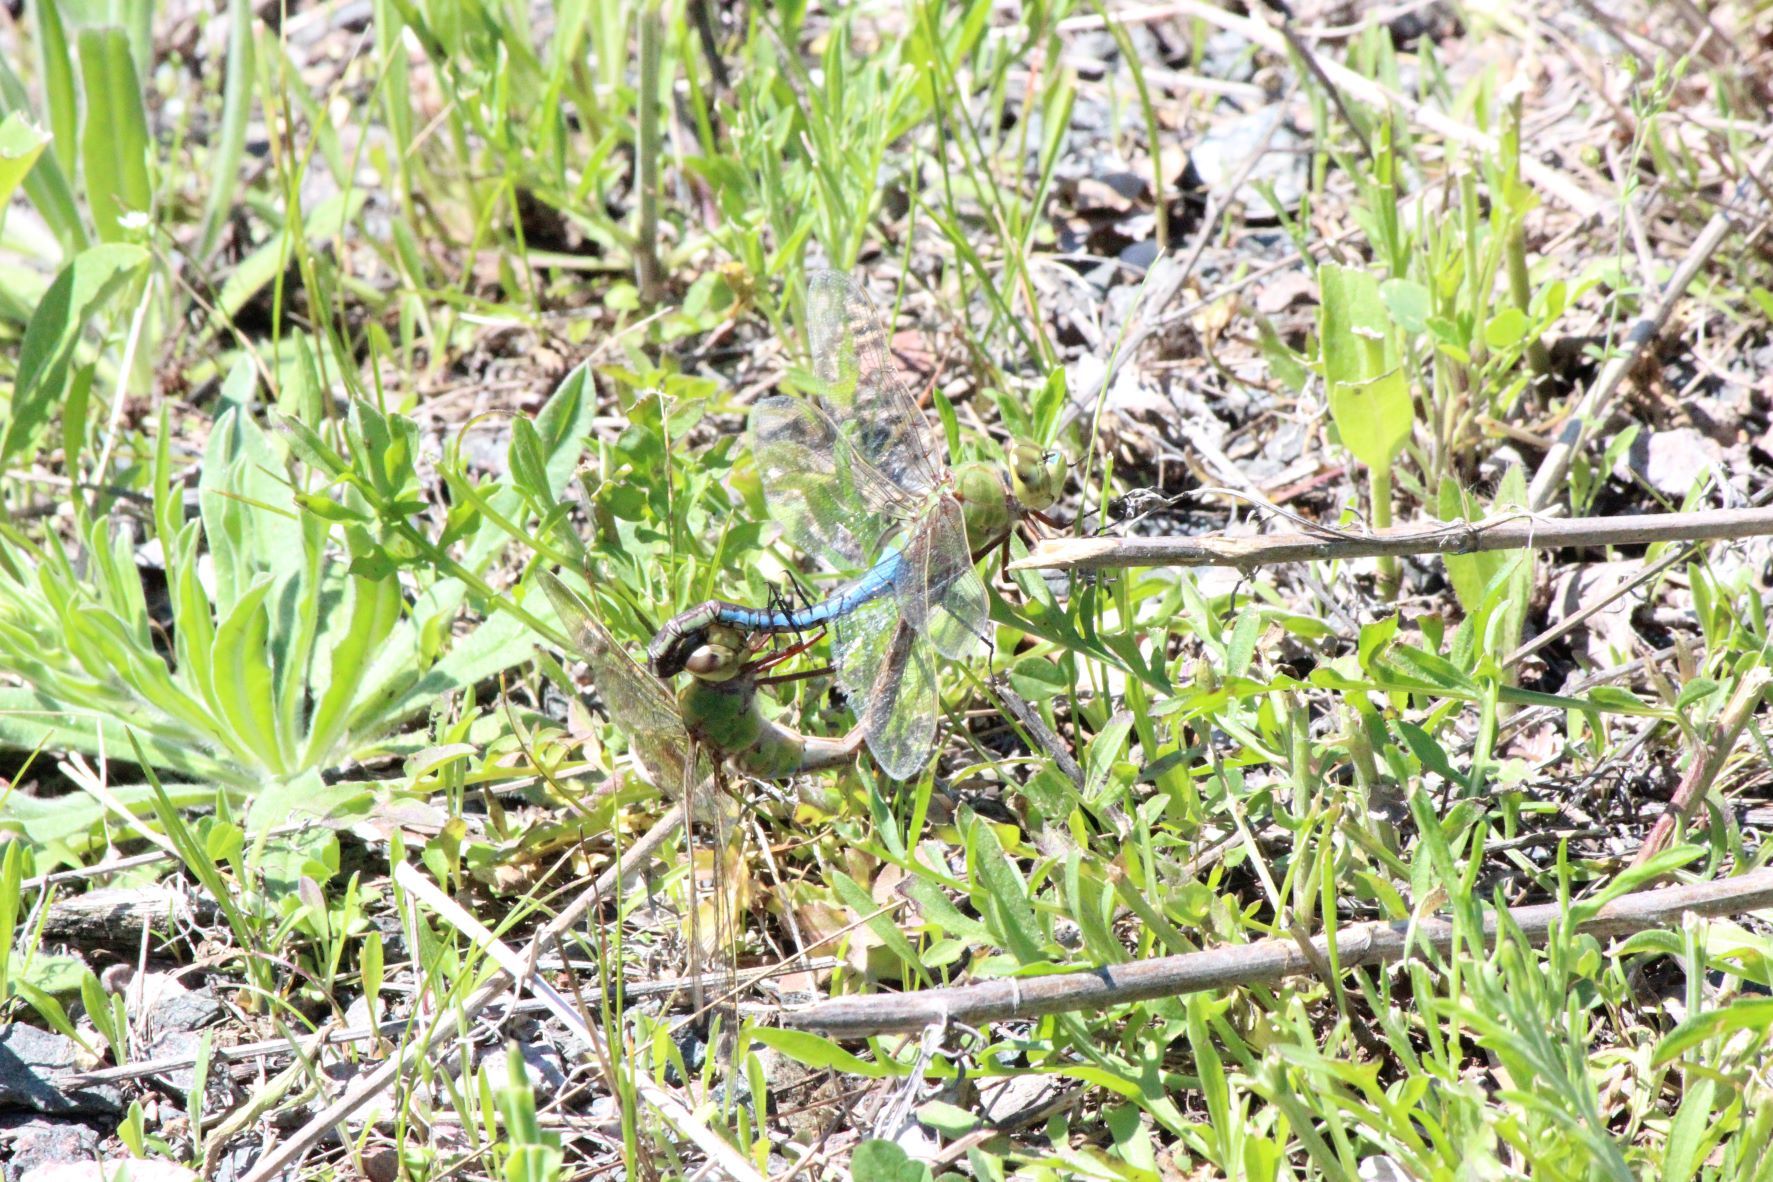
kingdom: Animalia
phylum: Arthropoda
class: Insecta
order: Odonata
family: Aeshnidae
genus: Anax
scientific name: Anax junius
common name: Common green darner
